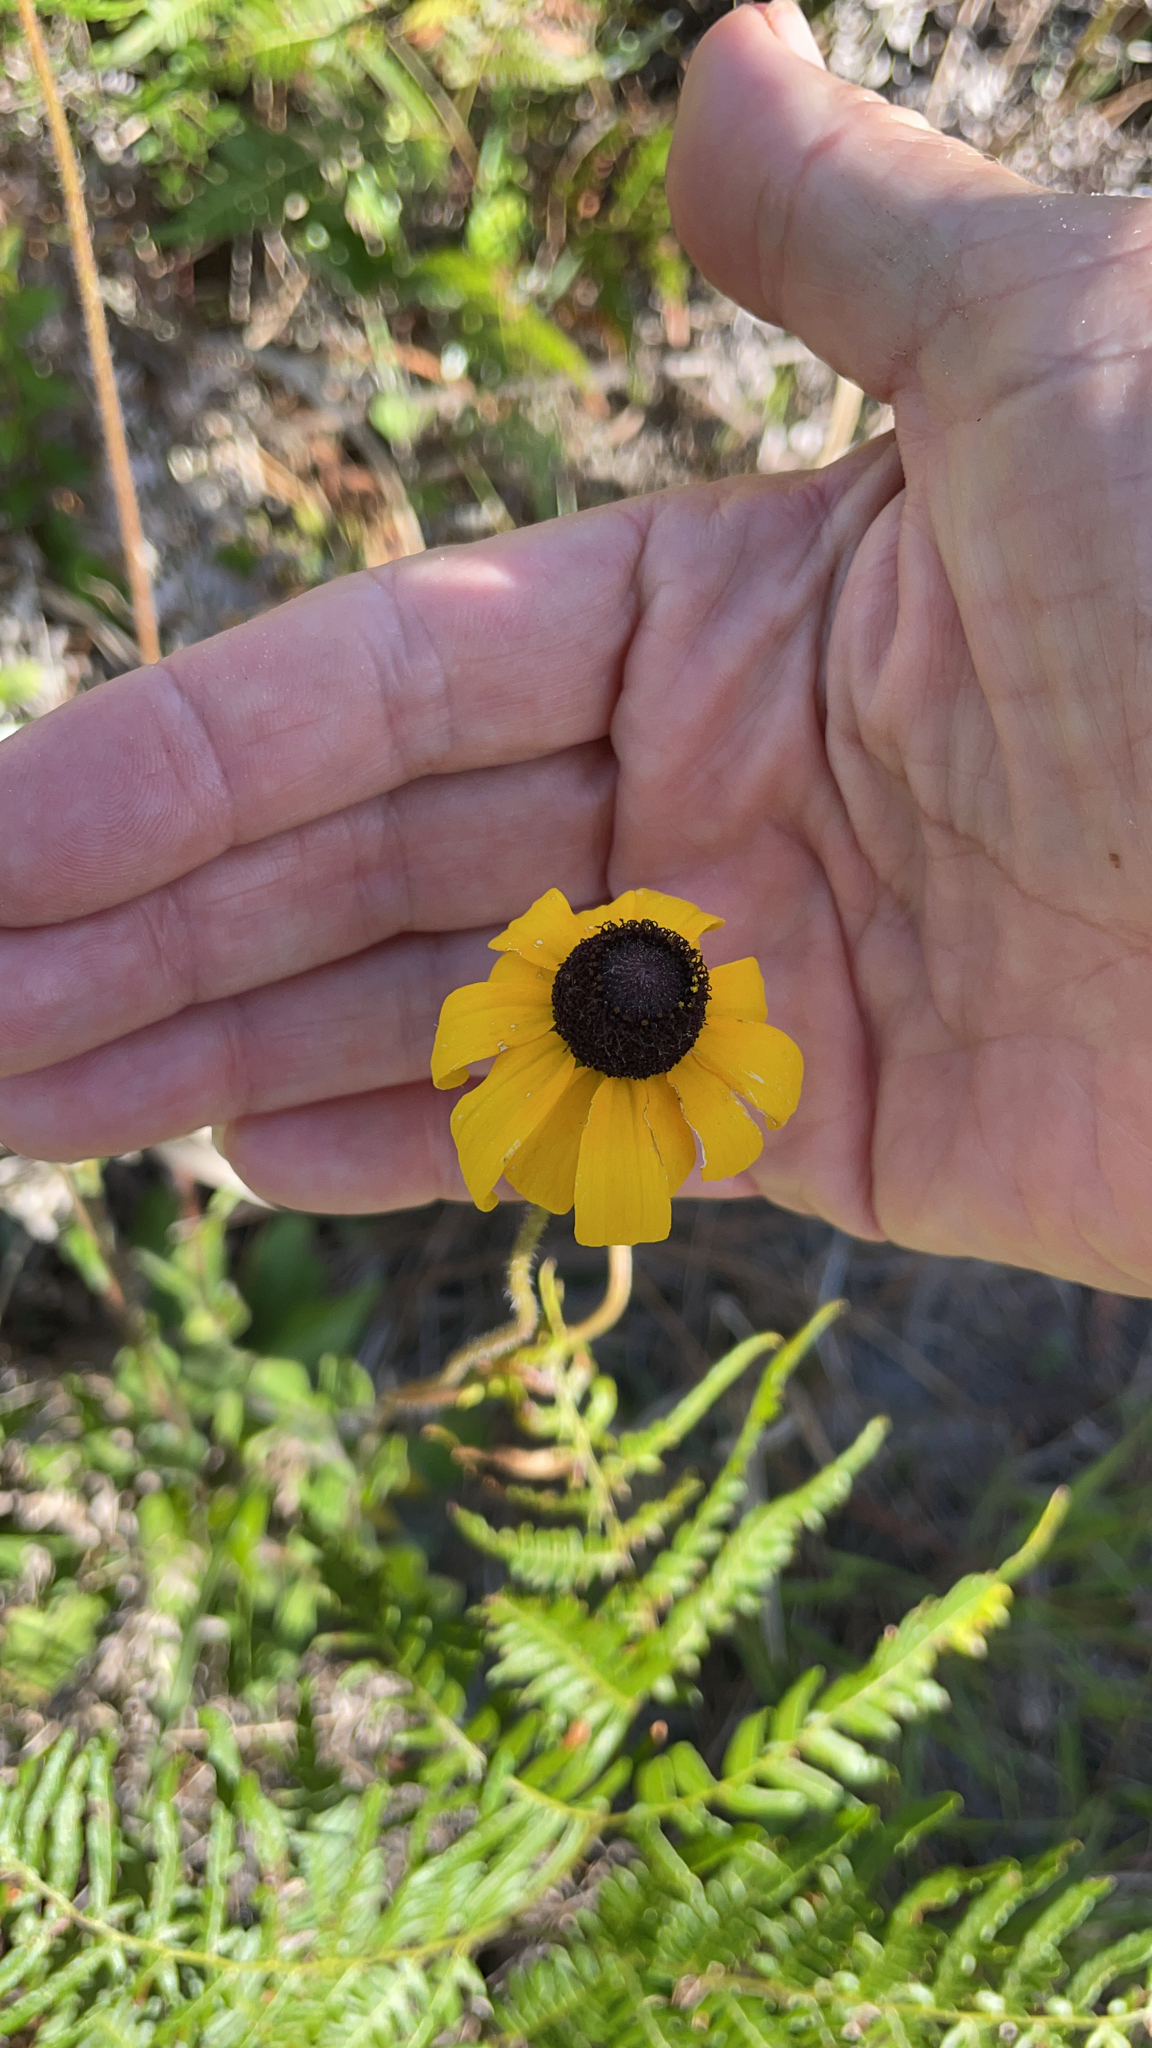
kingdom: Plantae
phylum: Tracheophyta
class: Magnoliopsida
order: Asterales
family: Asteraceae
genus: Rudbeckia
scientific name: Rudbeckia hirta
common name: Black-eyed-susan
